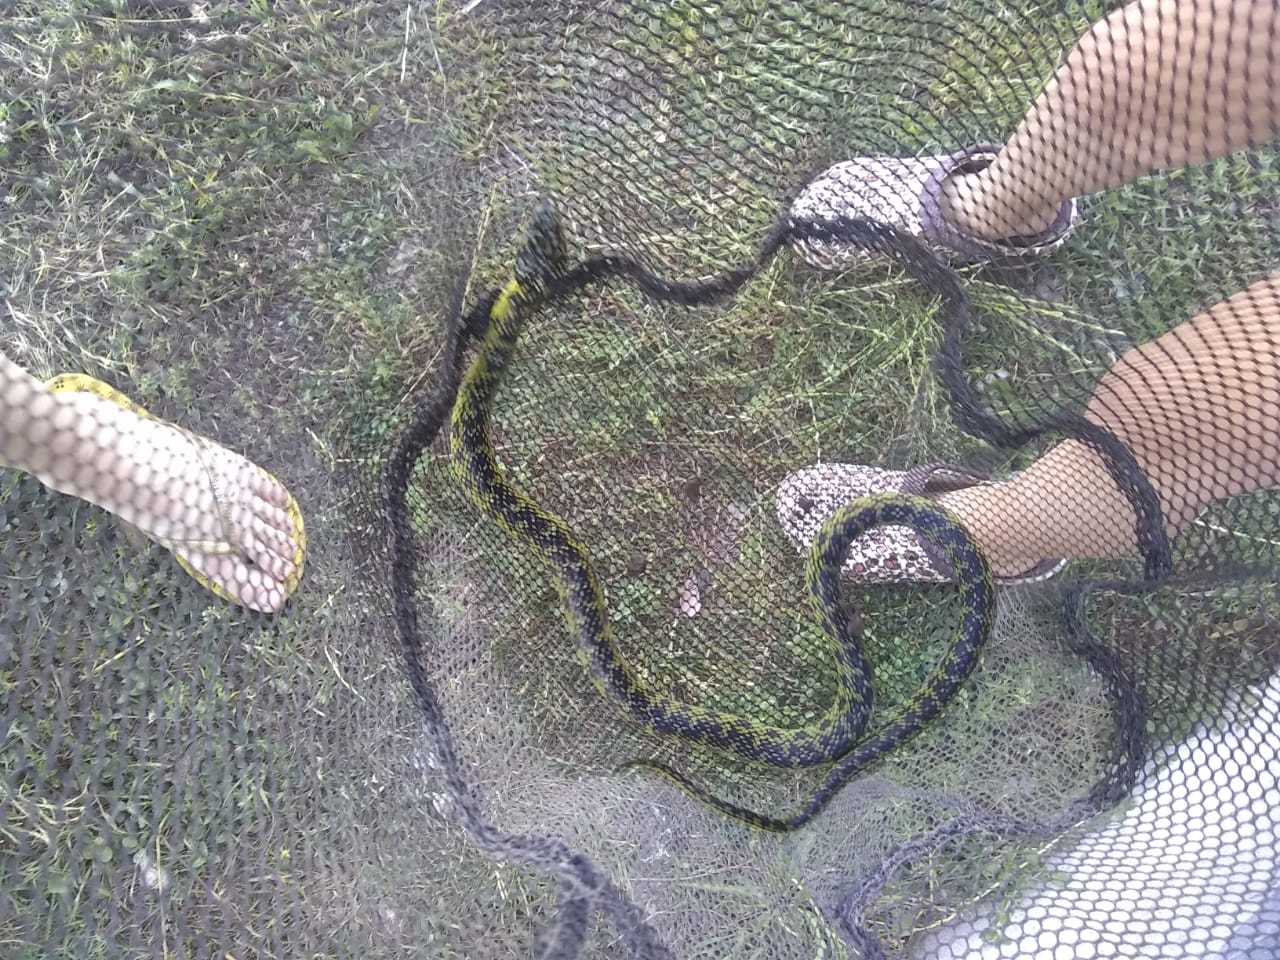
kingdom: Animalia
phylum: Chordata
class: Squamata
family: Colubridae
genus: Erythrolamprus
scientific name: Erythrolamprus poecilogyrus
